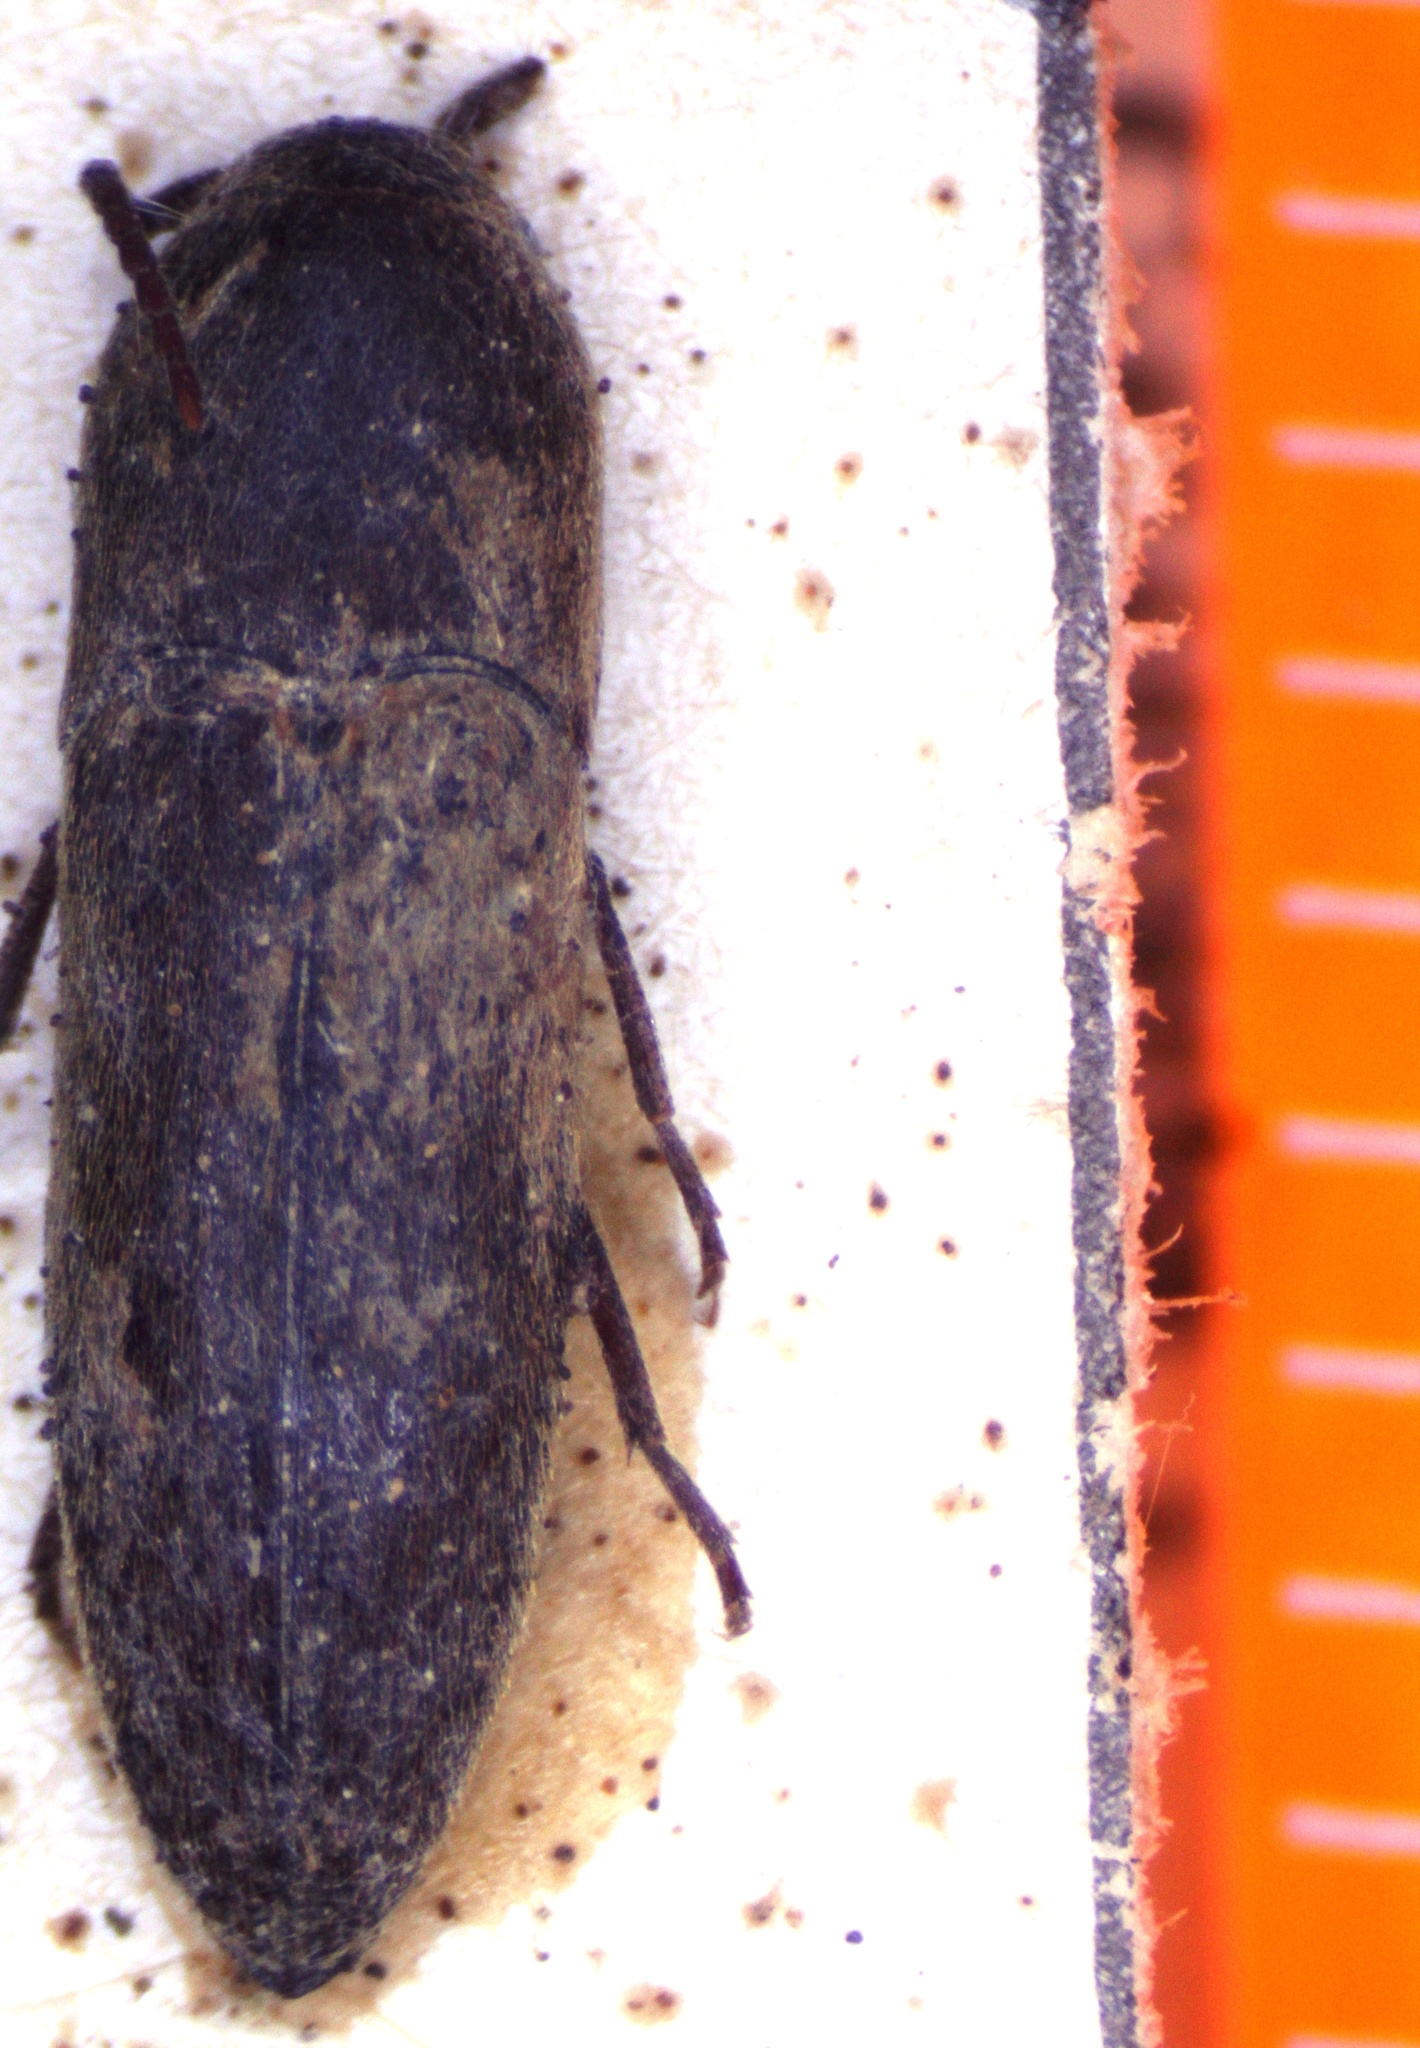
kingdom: Animalia
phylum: Arthropoda
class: Insecta
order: Coleoptera
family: Eucnemidae
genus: Fornax
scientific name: Fornax adjectus
